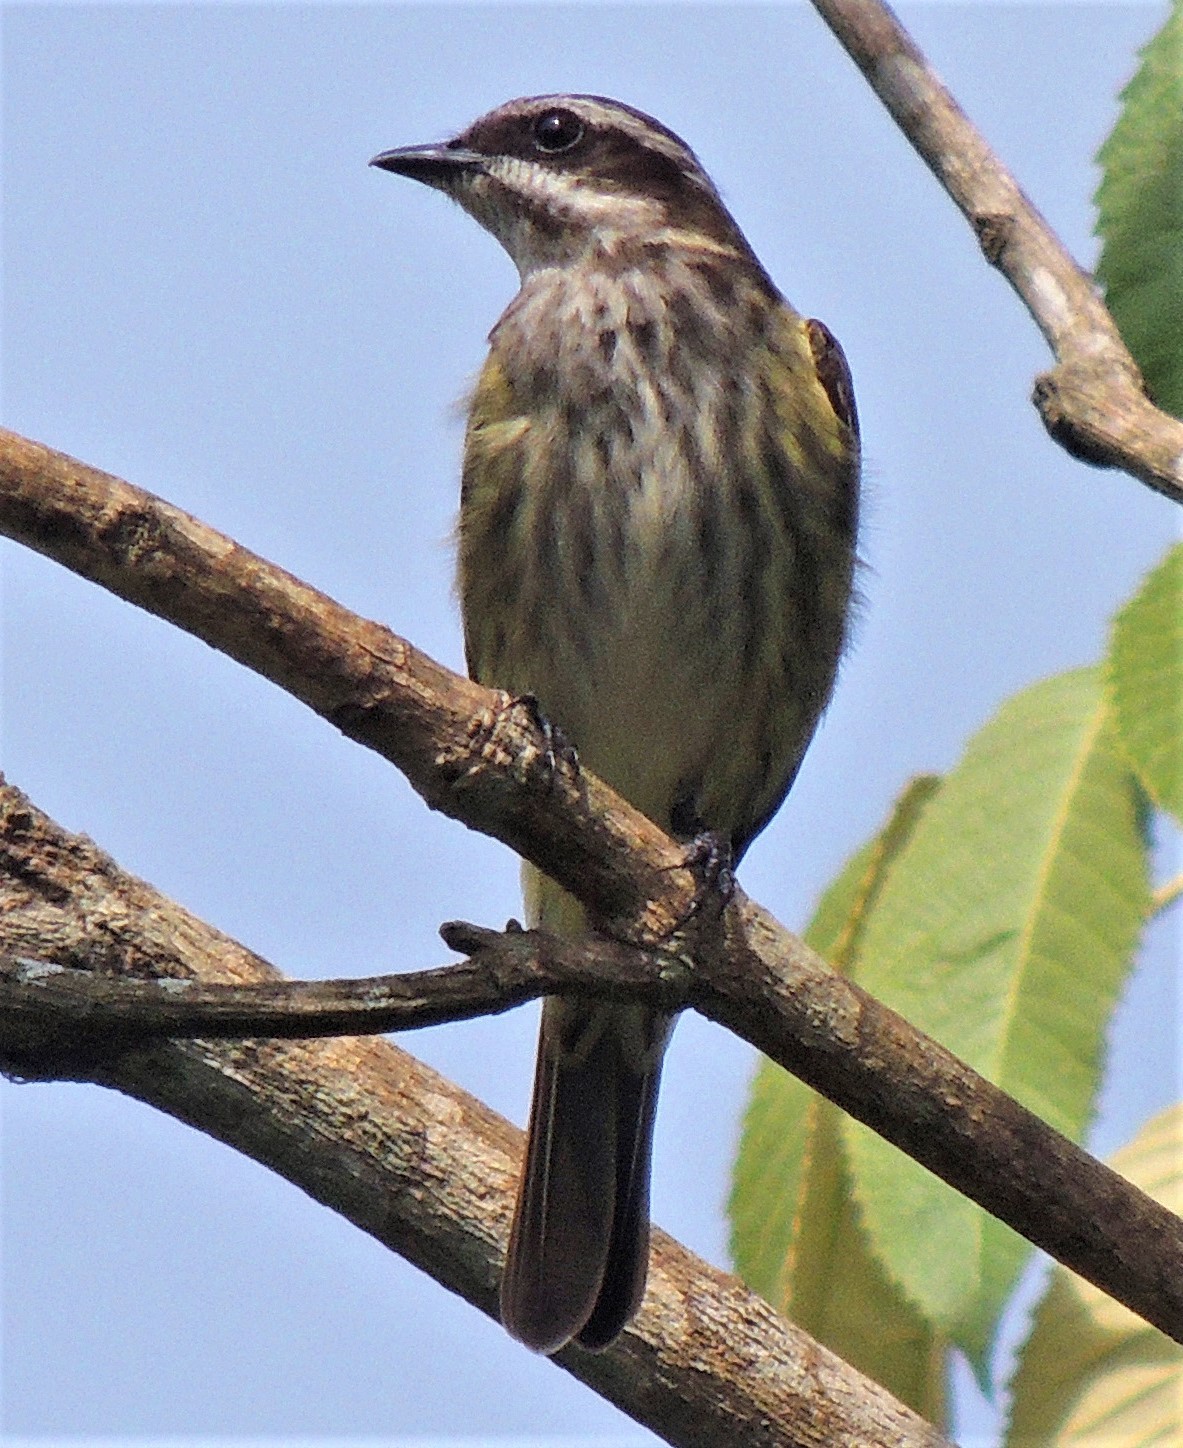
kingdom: Animalia
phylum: Chordata
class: Aves
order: Passeriformes
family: Tyrannidae
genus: Legatus
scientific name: Legatus leucophaius
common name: Piratic flycatcher
